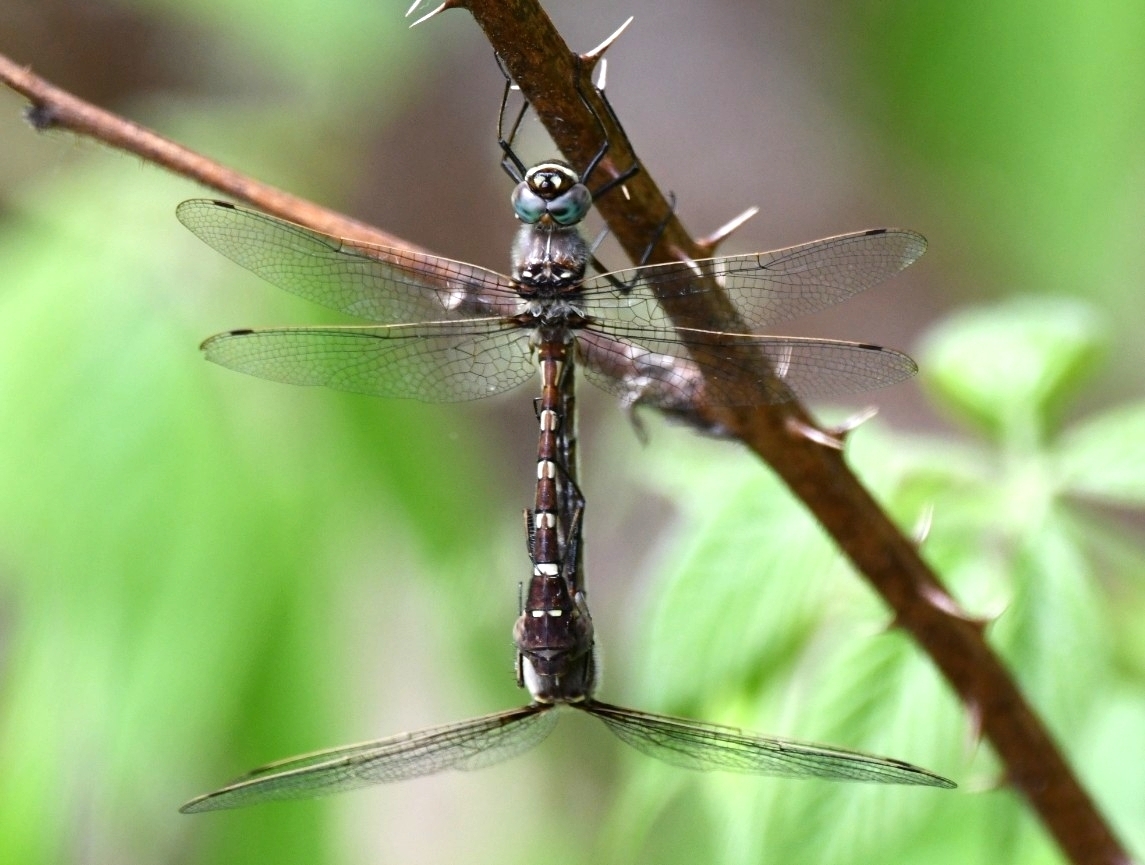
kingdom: Animalia
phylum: Arthropoda
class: Insecta
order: Odonata
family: Macromiidae
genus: Didymops
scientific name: Didymops transversa
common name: Stream cruiser
